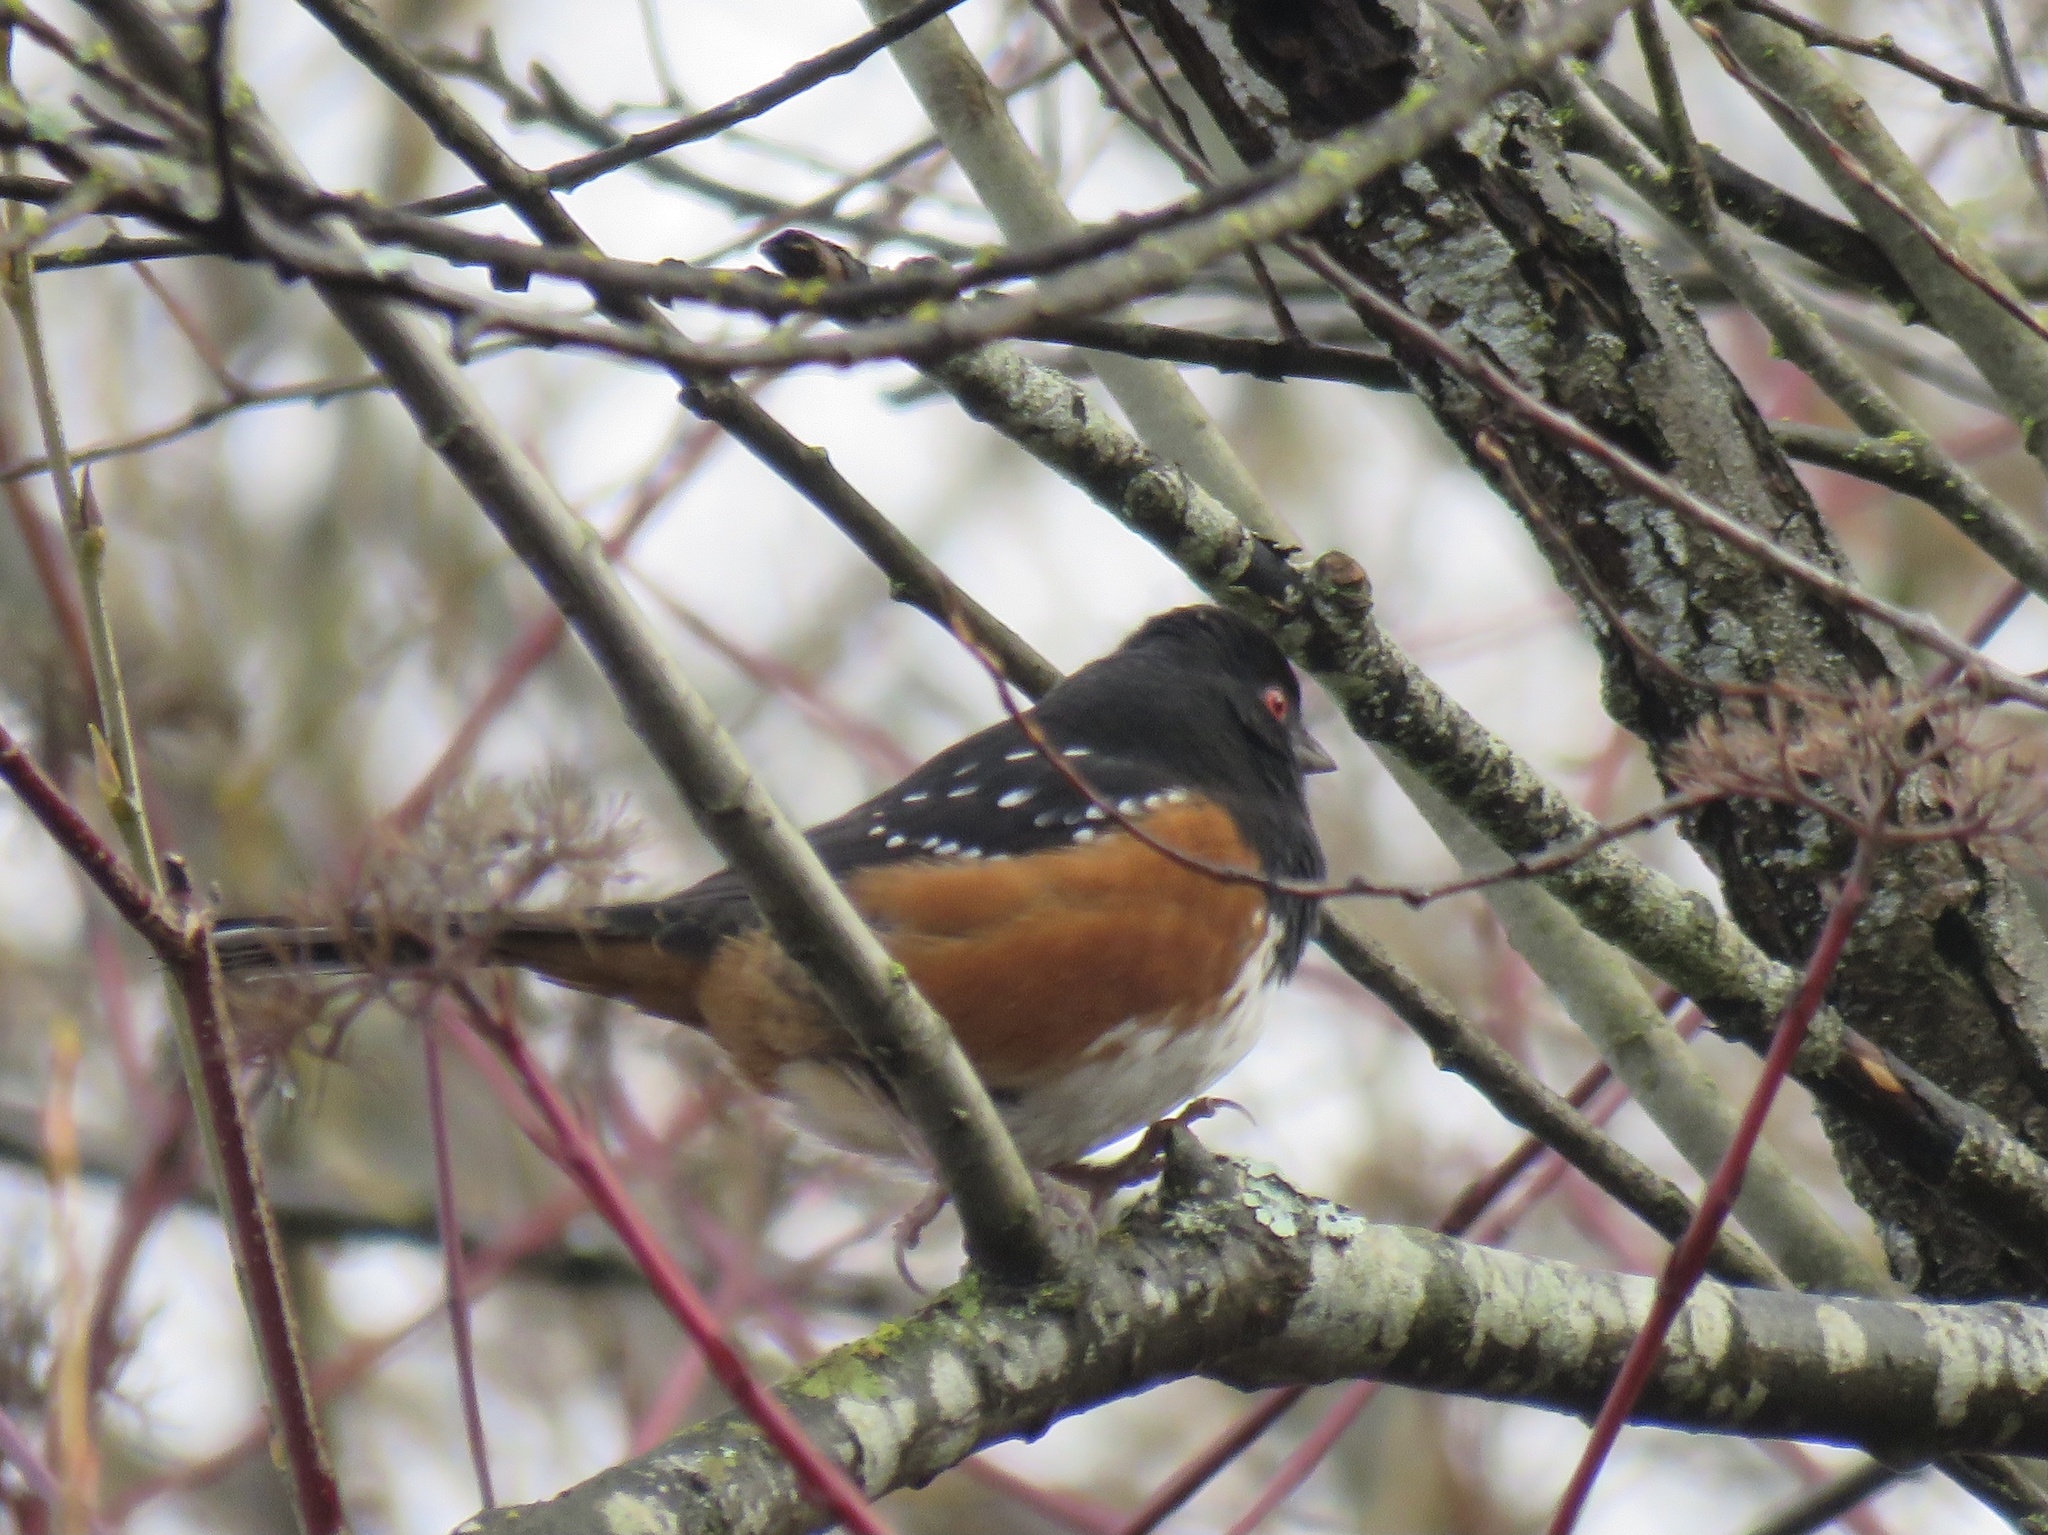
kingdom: Animalia
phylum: Chordata
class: Aves
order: Passeriformes
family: Passerellidae
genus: Pipilo
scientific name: Pipilo maculatus
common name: Spotted towhee
